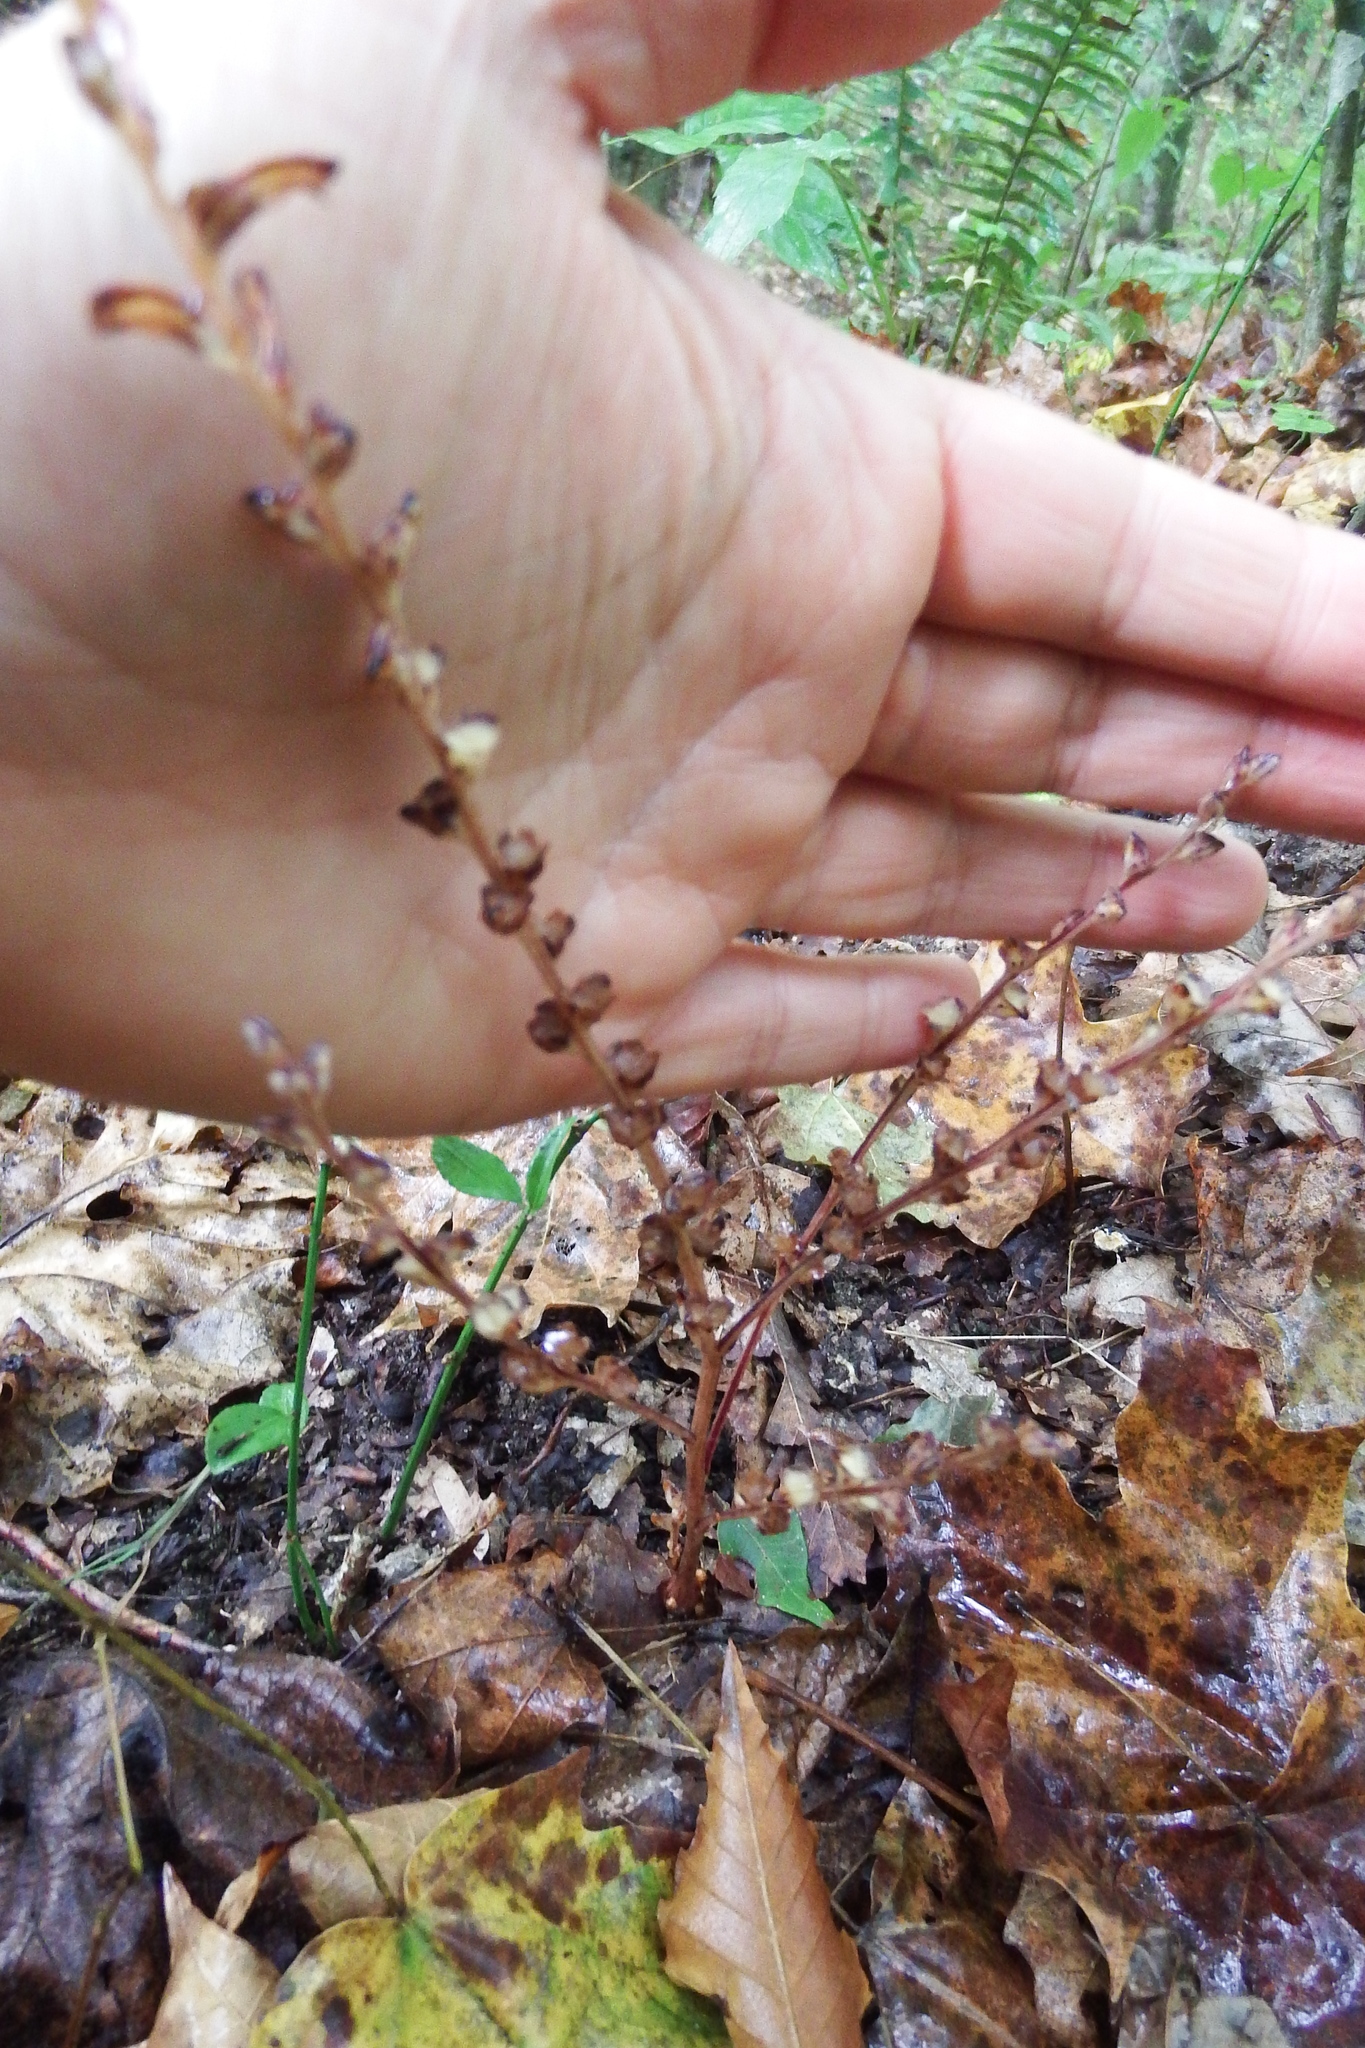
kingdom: Plantae
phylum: Tracheophyta
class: Magnoliopsida
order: Lamiales
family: Orobanchaceae
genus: Epifagus
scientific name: Epifagus virginiana
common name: Beechdrops
